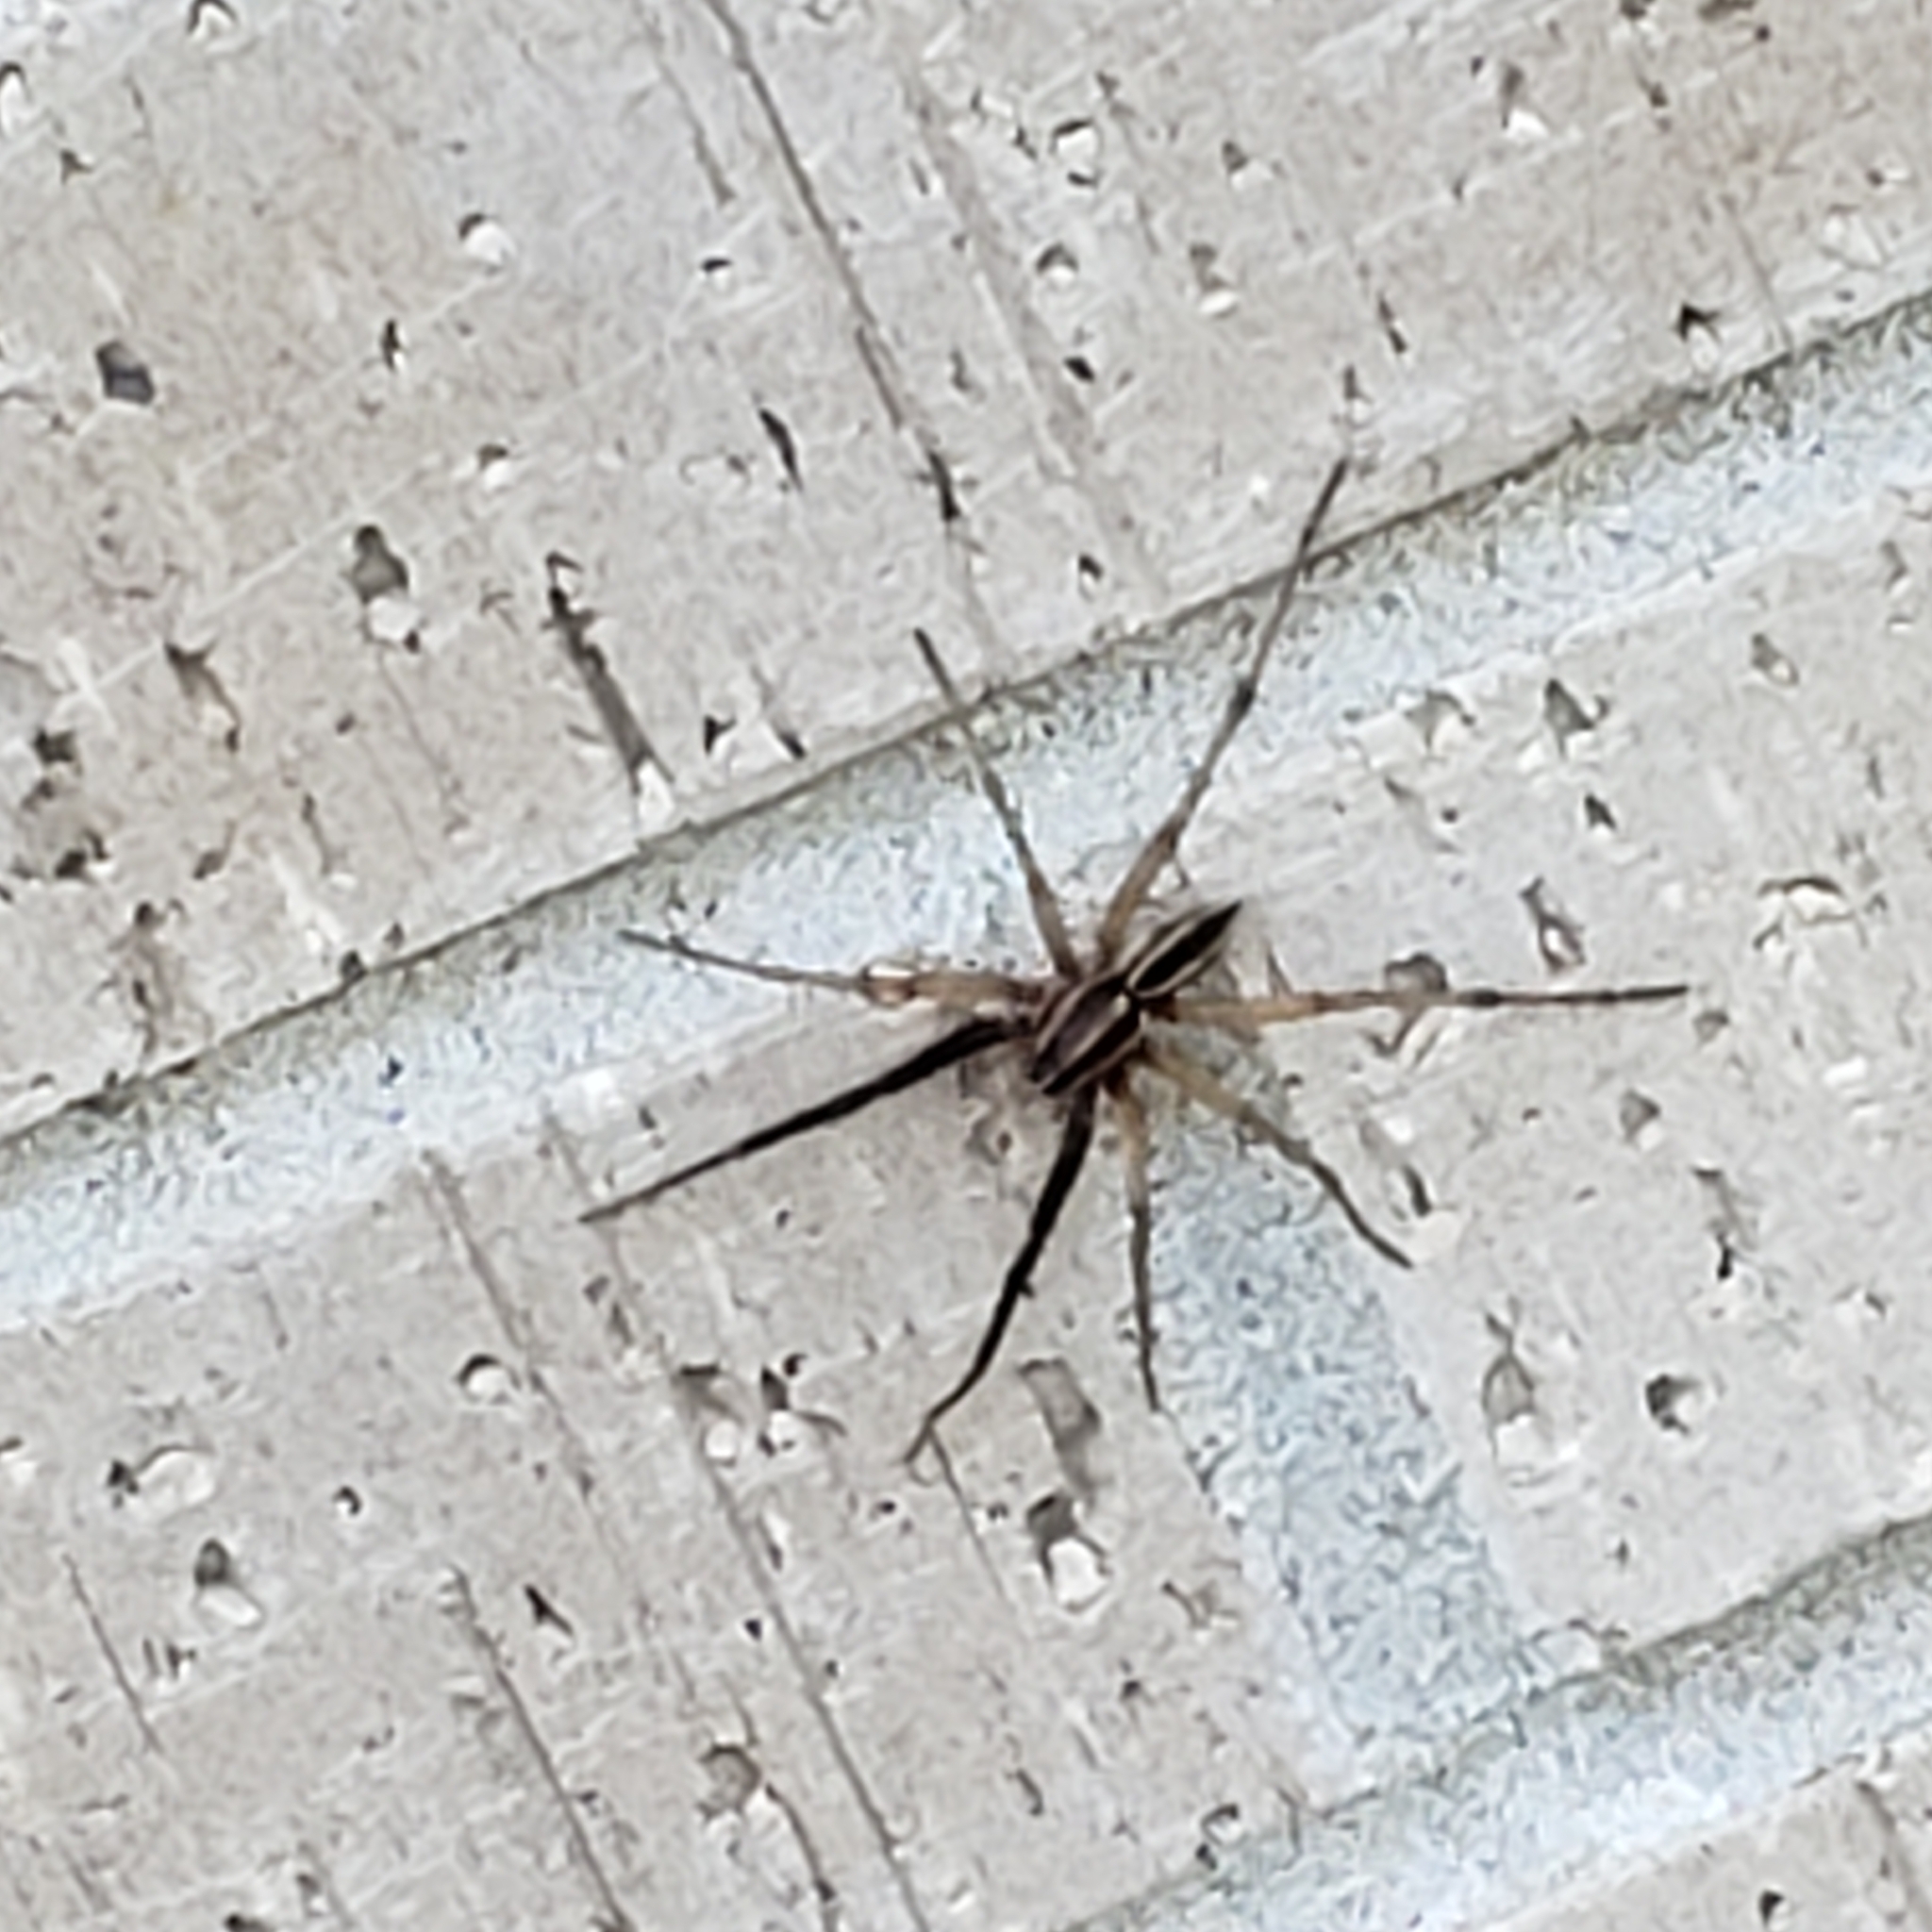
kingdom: Animalia
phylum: Arthropoda
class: Arachnida
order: Araneae
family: Lycosidae
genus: Rabidosa
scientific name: Rabidosa rabida
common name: Rabid wolf spider
